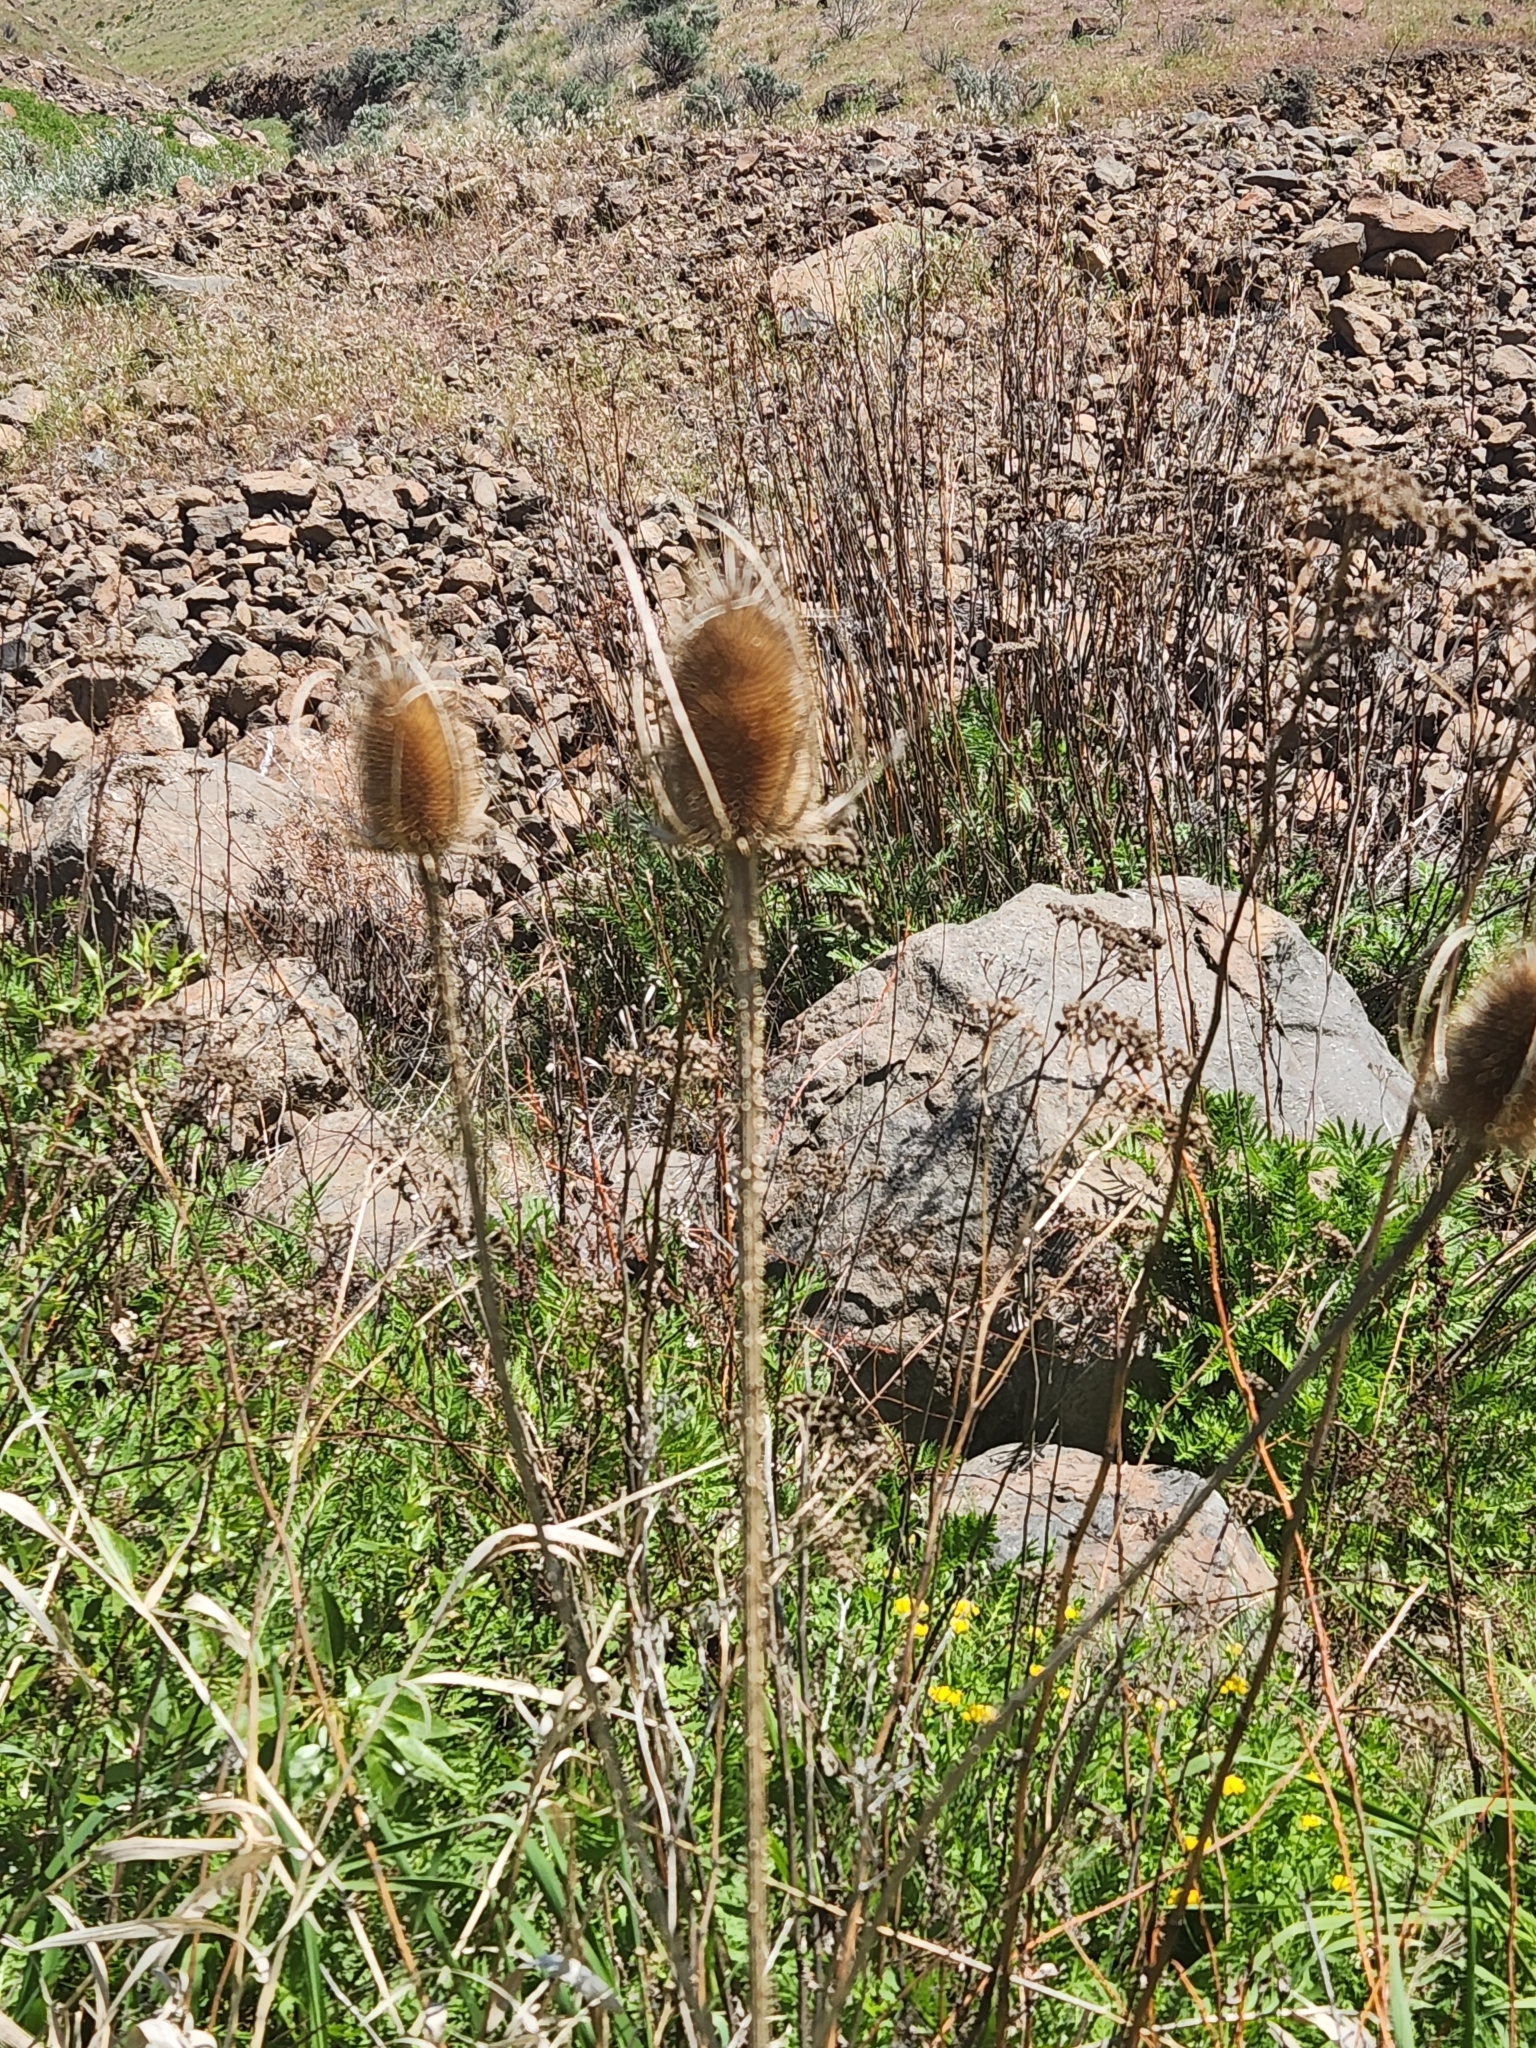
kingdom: Plantae
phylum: Tracheophyta
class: Magnoliopsida
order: Dipsacales
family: Caprifoliaceae
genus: Dipsacus
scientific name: Dipsacus fullonum
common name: Teasel
